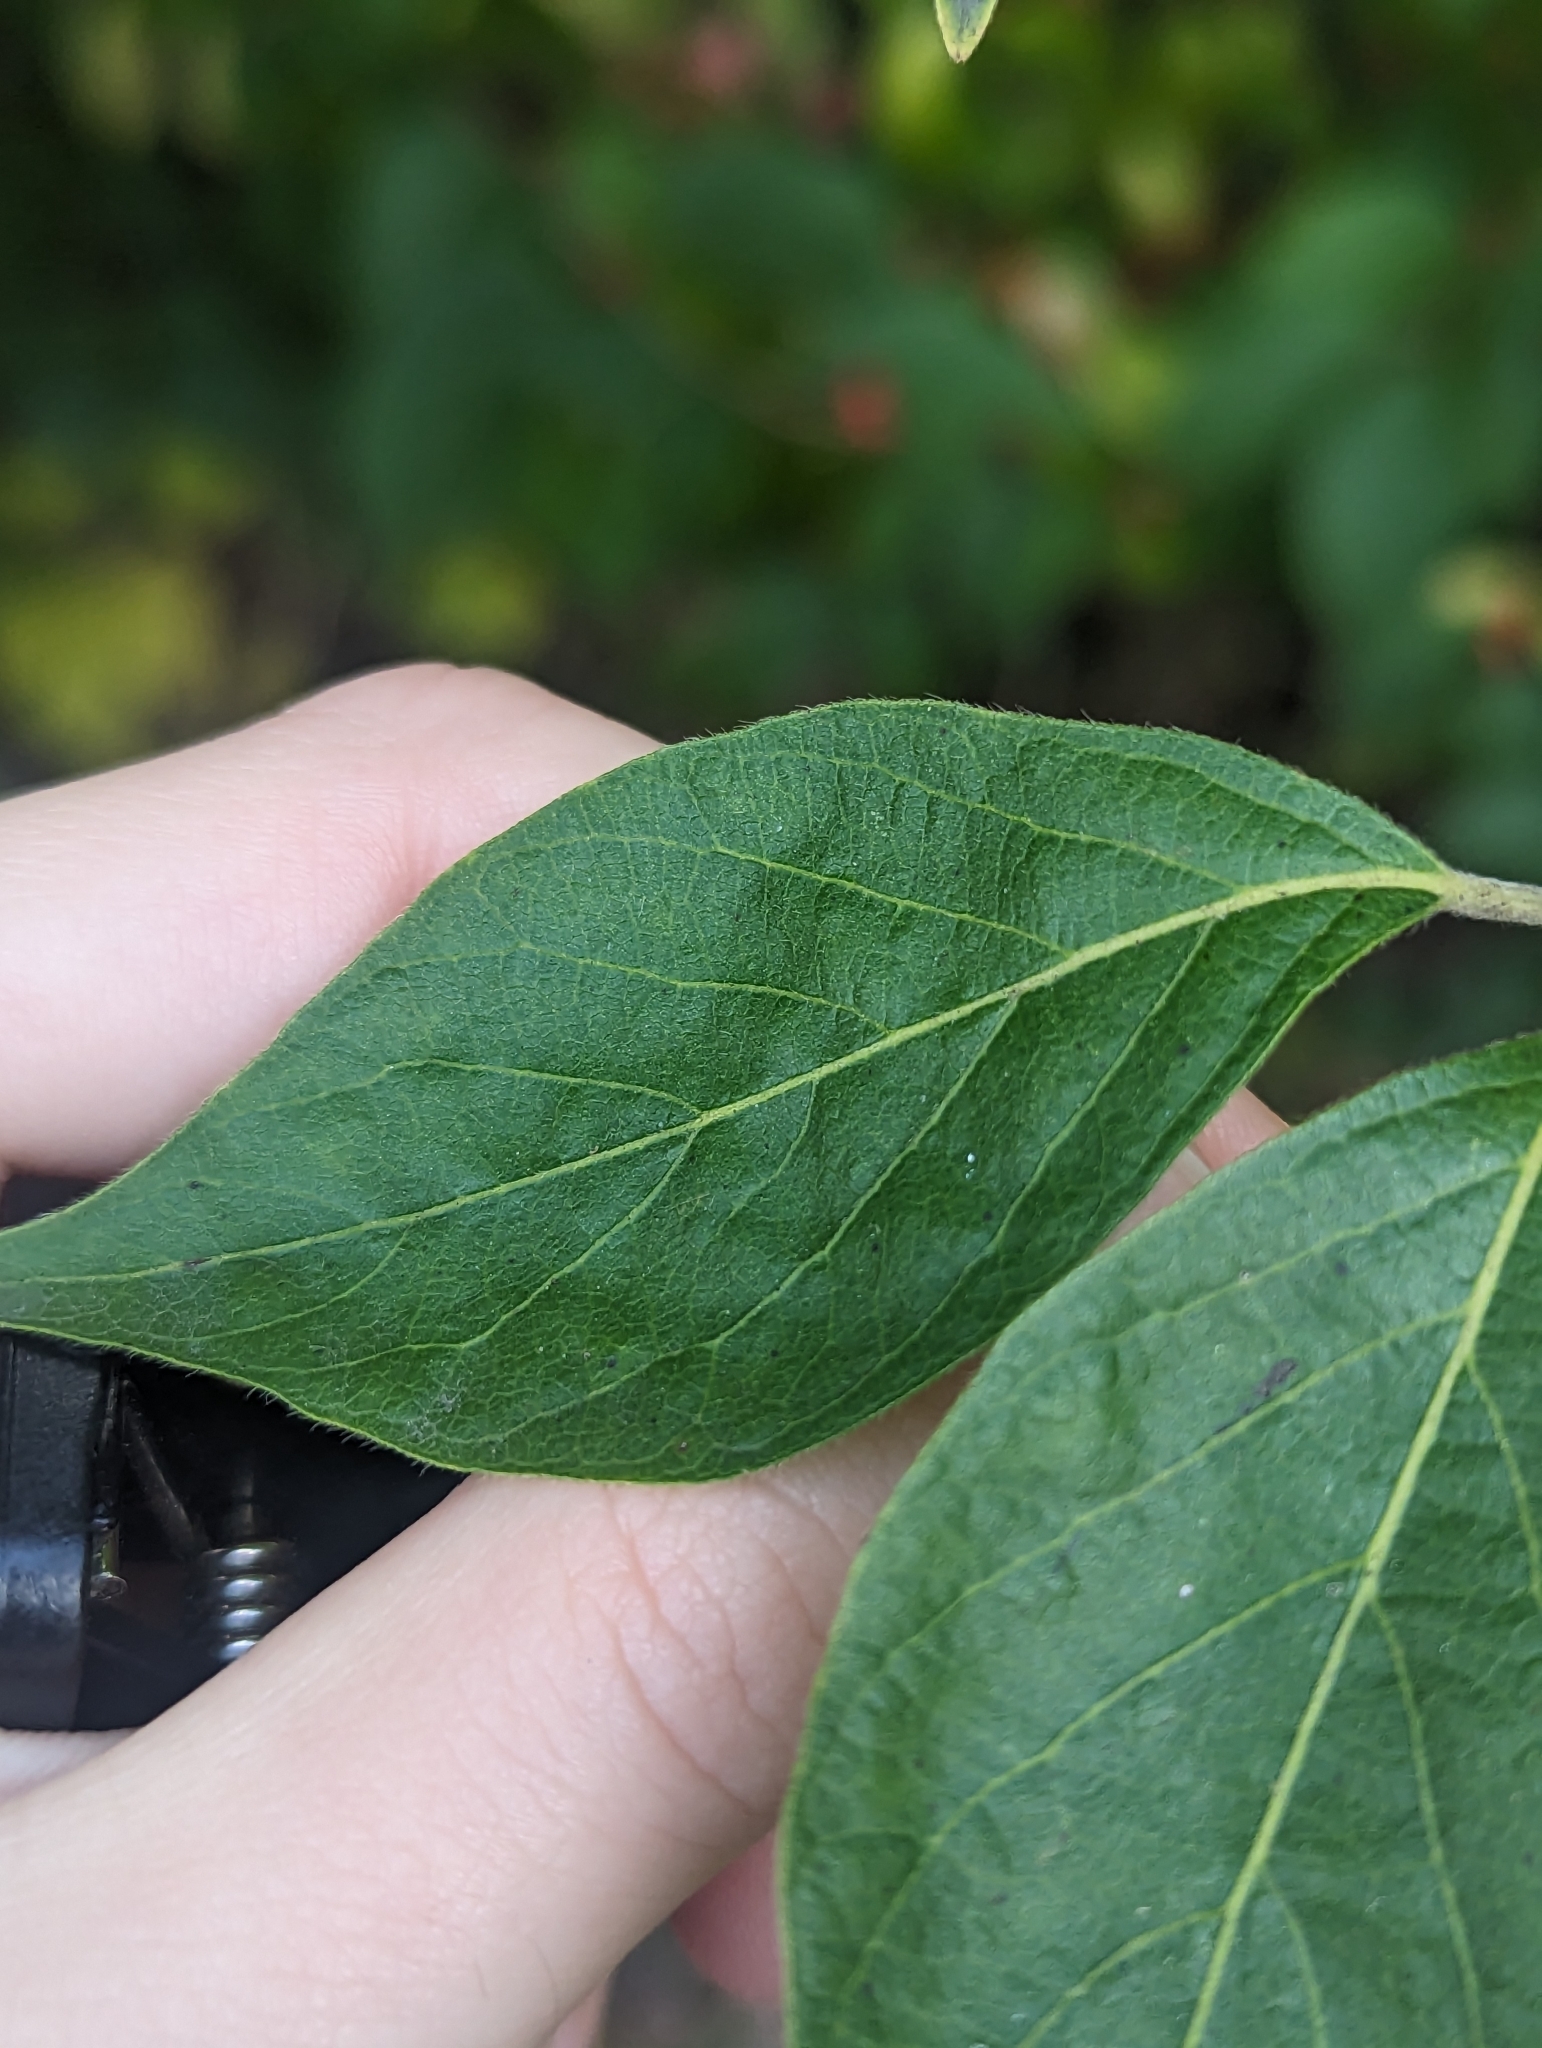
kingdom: Plantae
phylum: Tracheophyta
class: Magnoliopsida
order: Dipsacales
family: Caprifoliaceae
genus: Lonicera
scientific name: Lonicera maackii
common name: Amur honeysuckle
